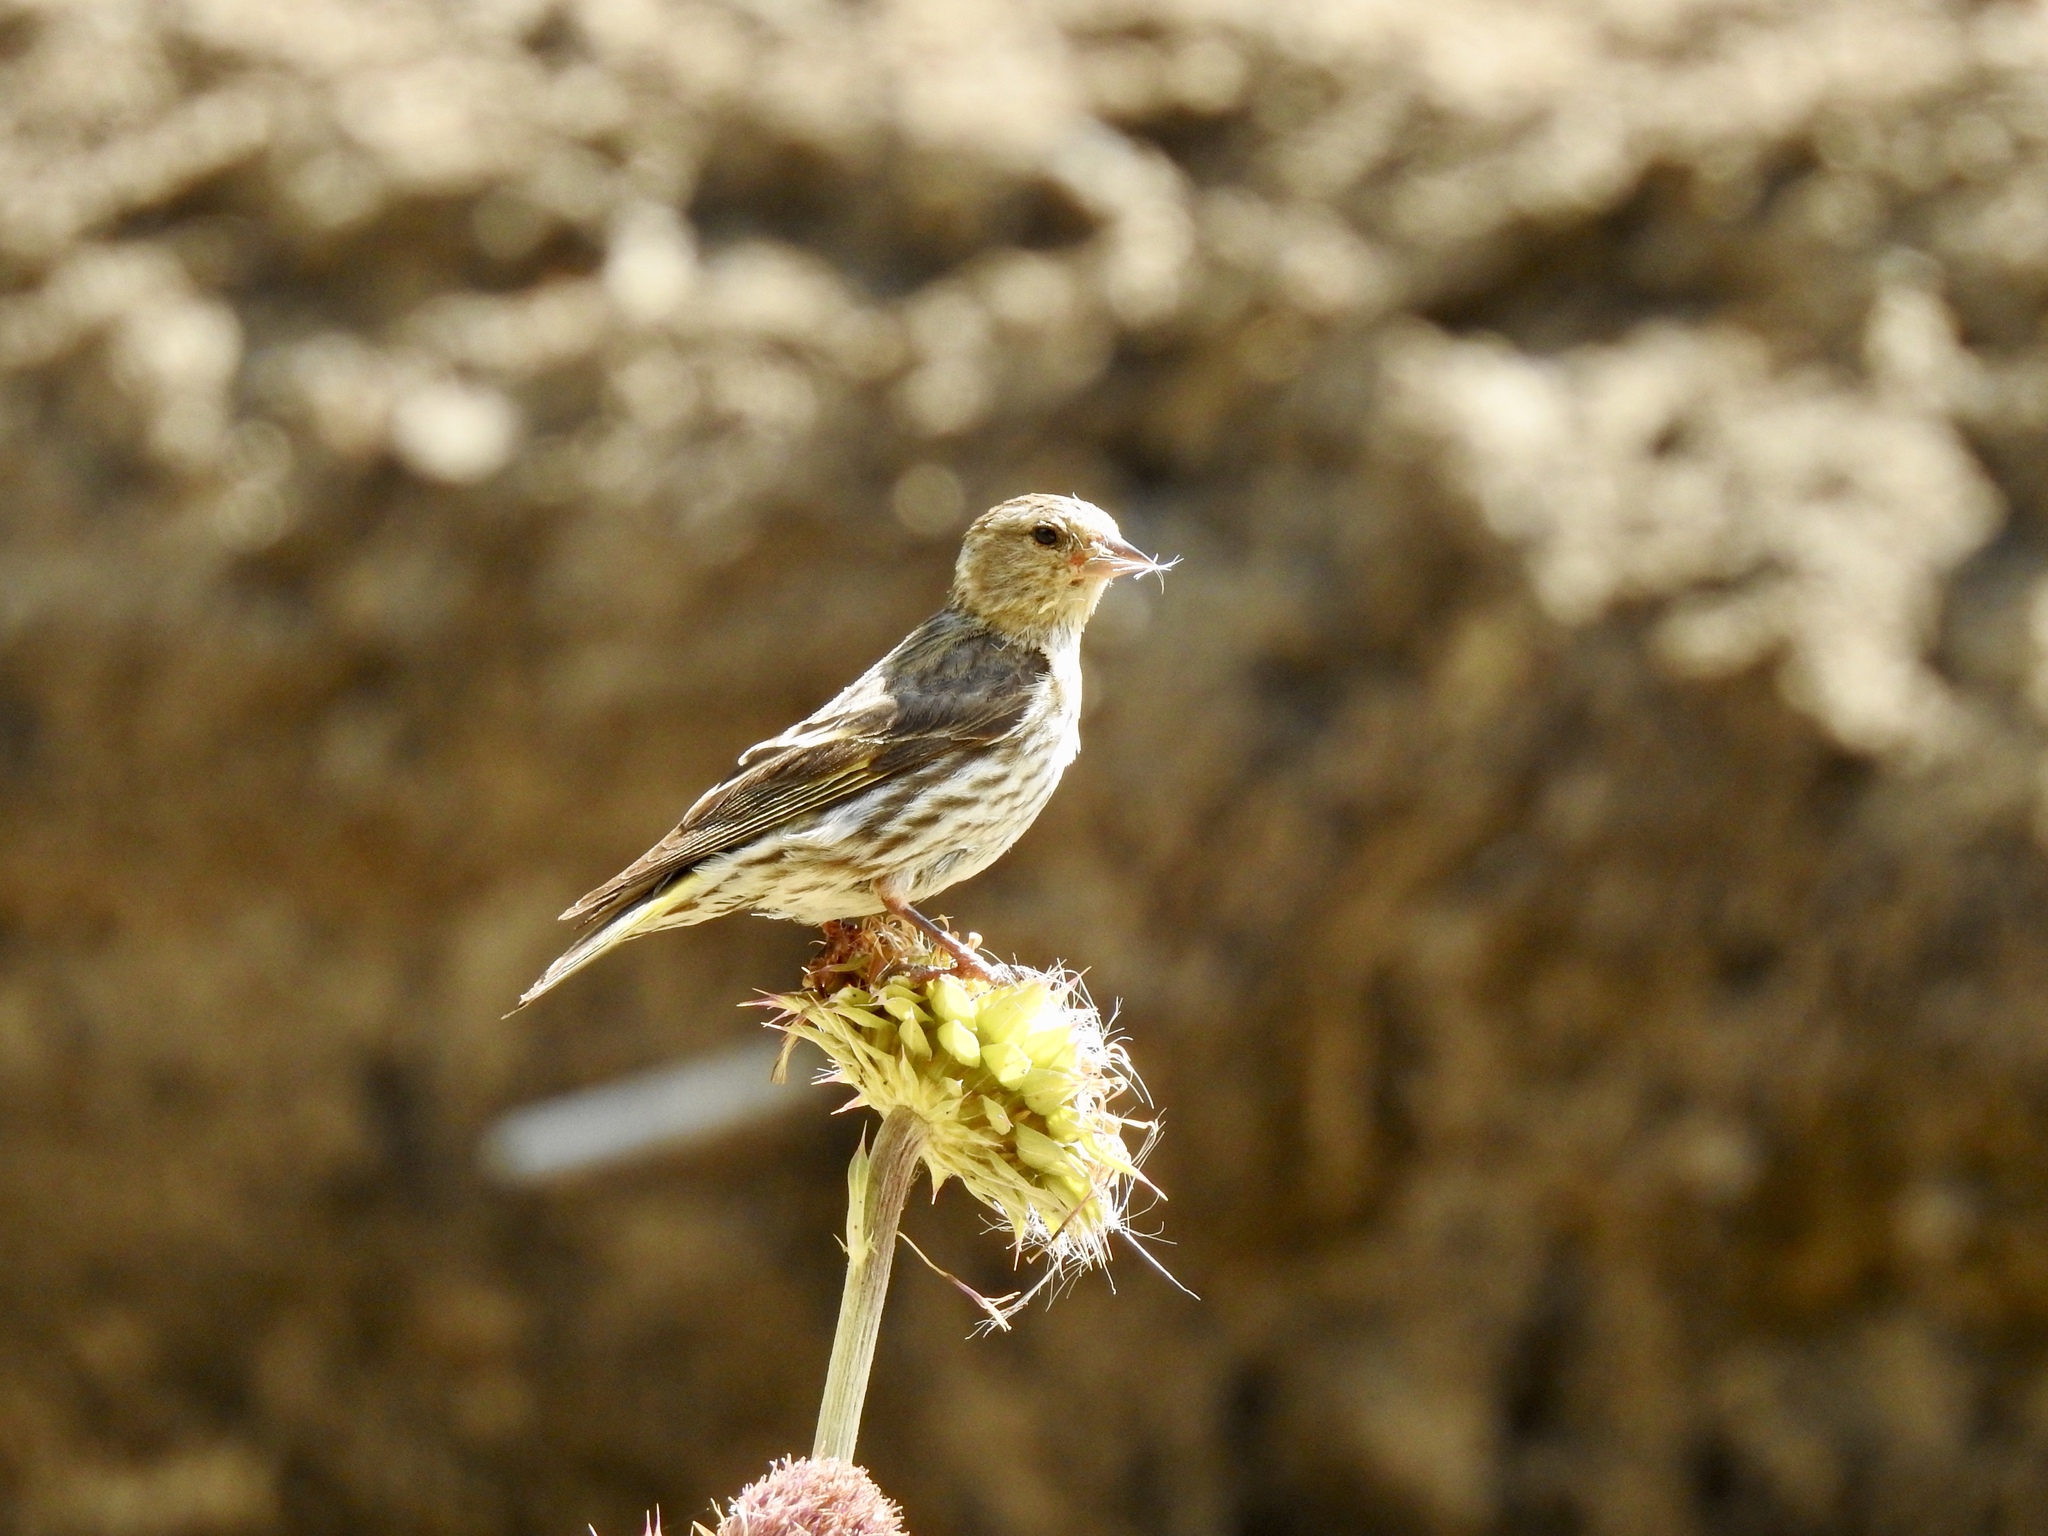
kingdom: Animalia
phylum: Chordata
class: Aves
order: Passeriformes
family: Fringillidae
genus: Spinus
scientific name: Spinus pinus
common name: Pine siskin
